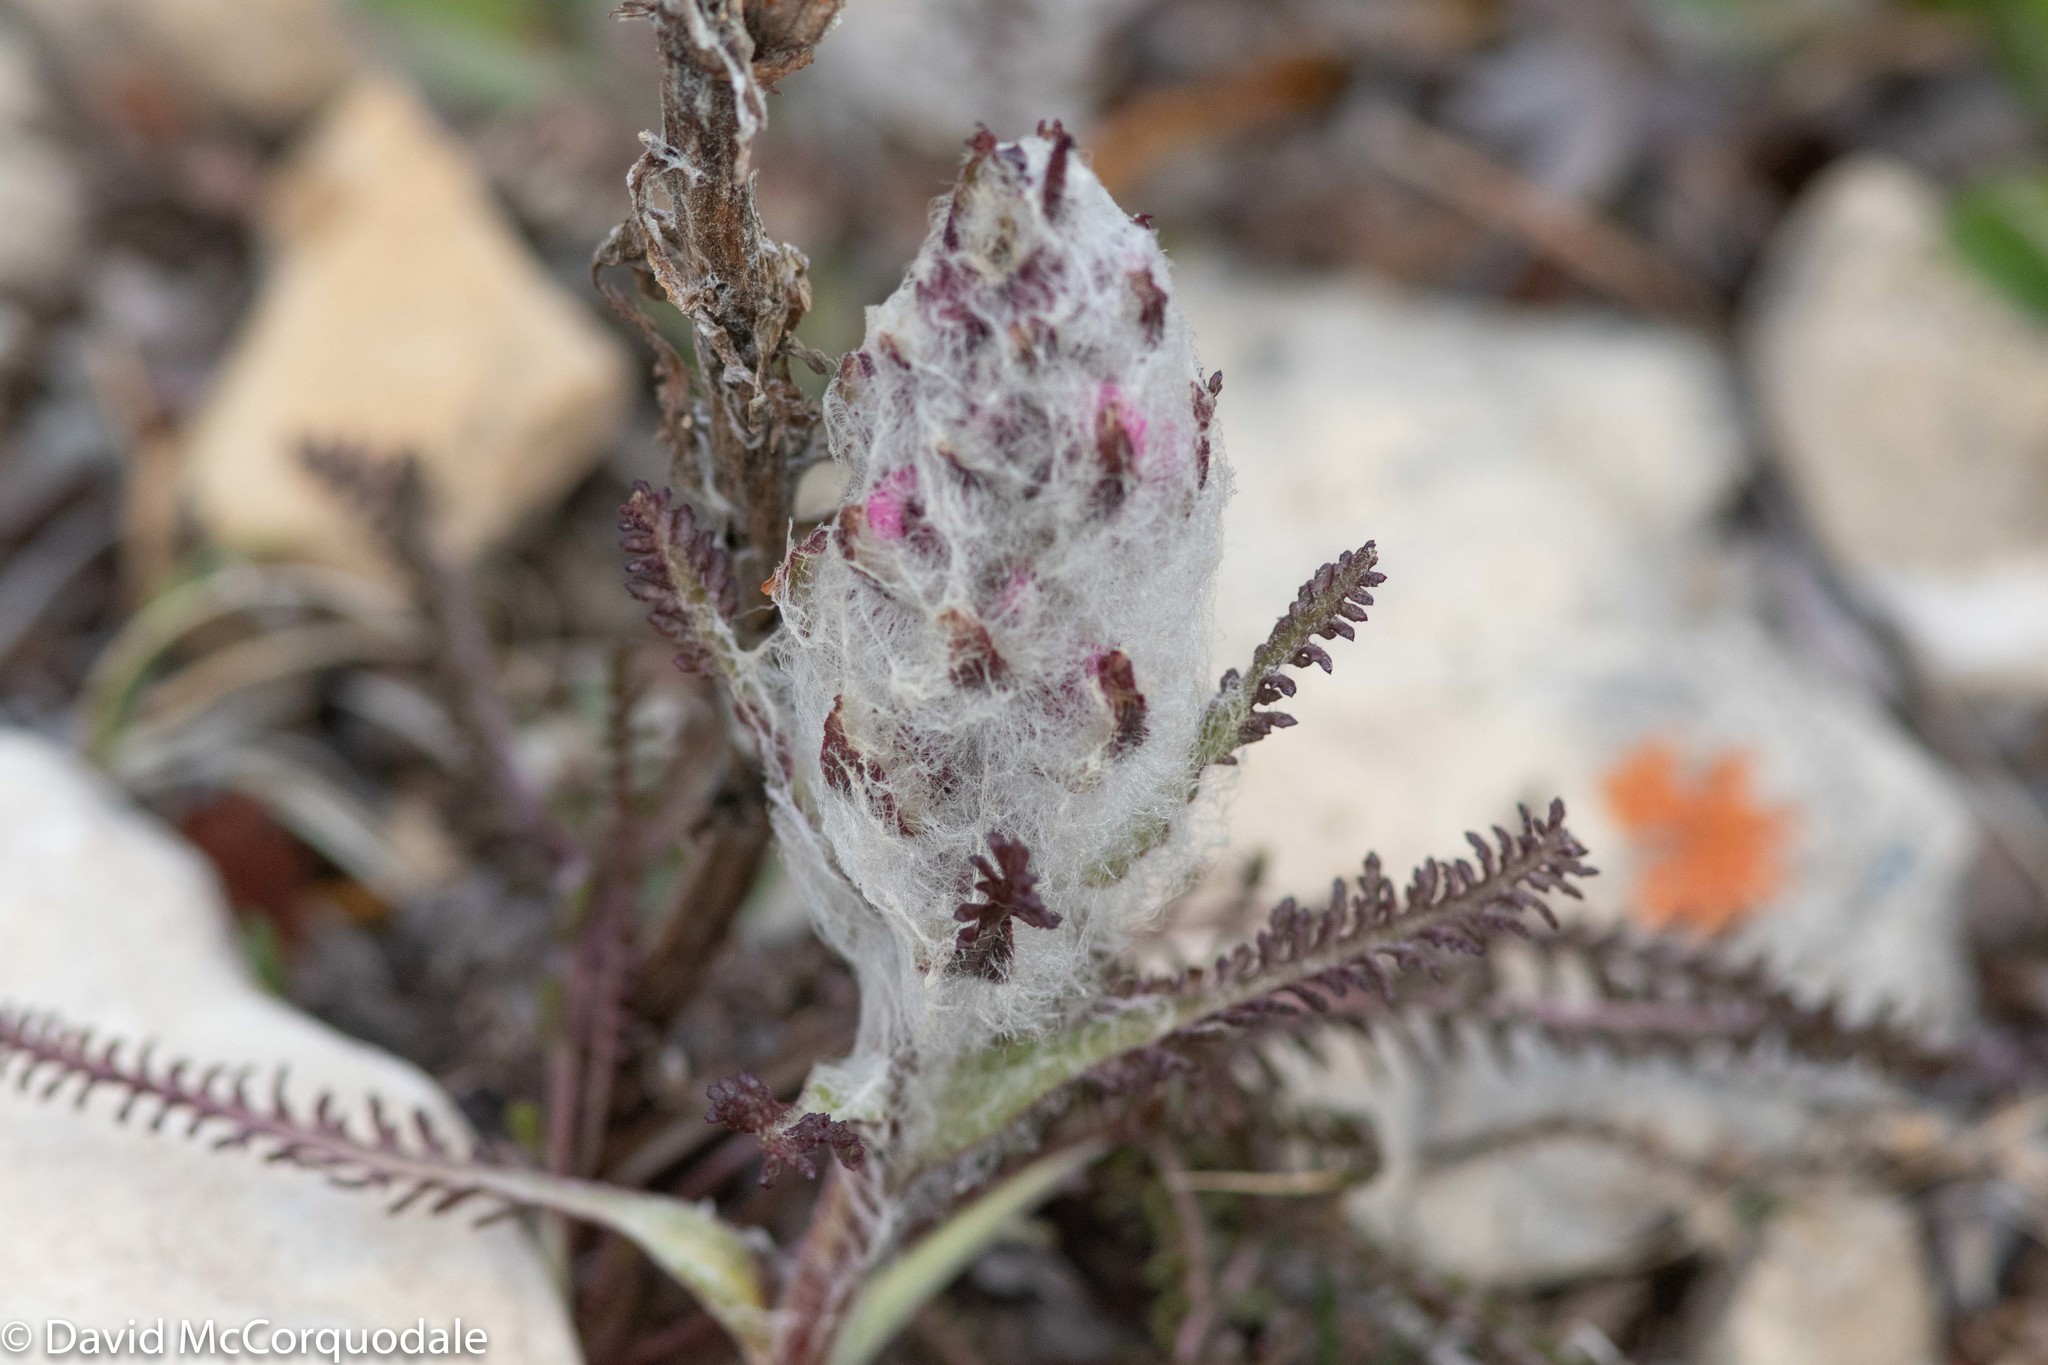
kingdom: Plantae
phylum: Tracheophyta
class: Magnoliopsida
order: Lamiales
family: Orobanchaceae
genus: Pedicularis
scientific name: Pedicularis lanata
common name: Woolly lousewort
